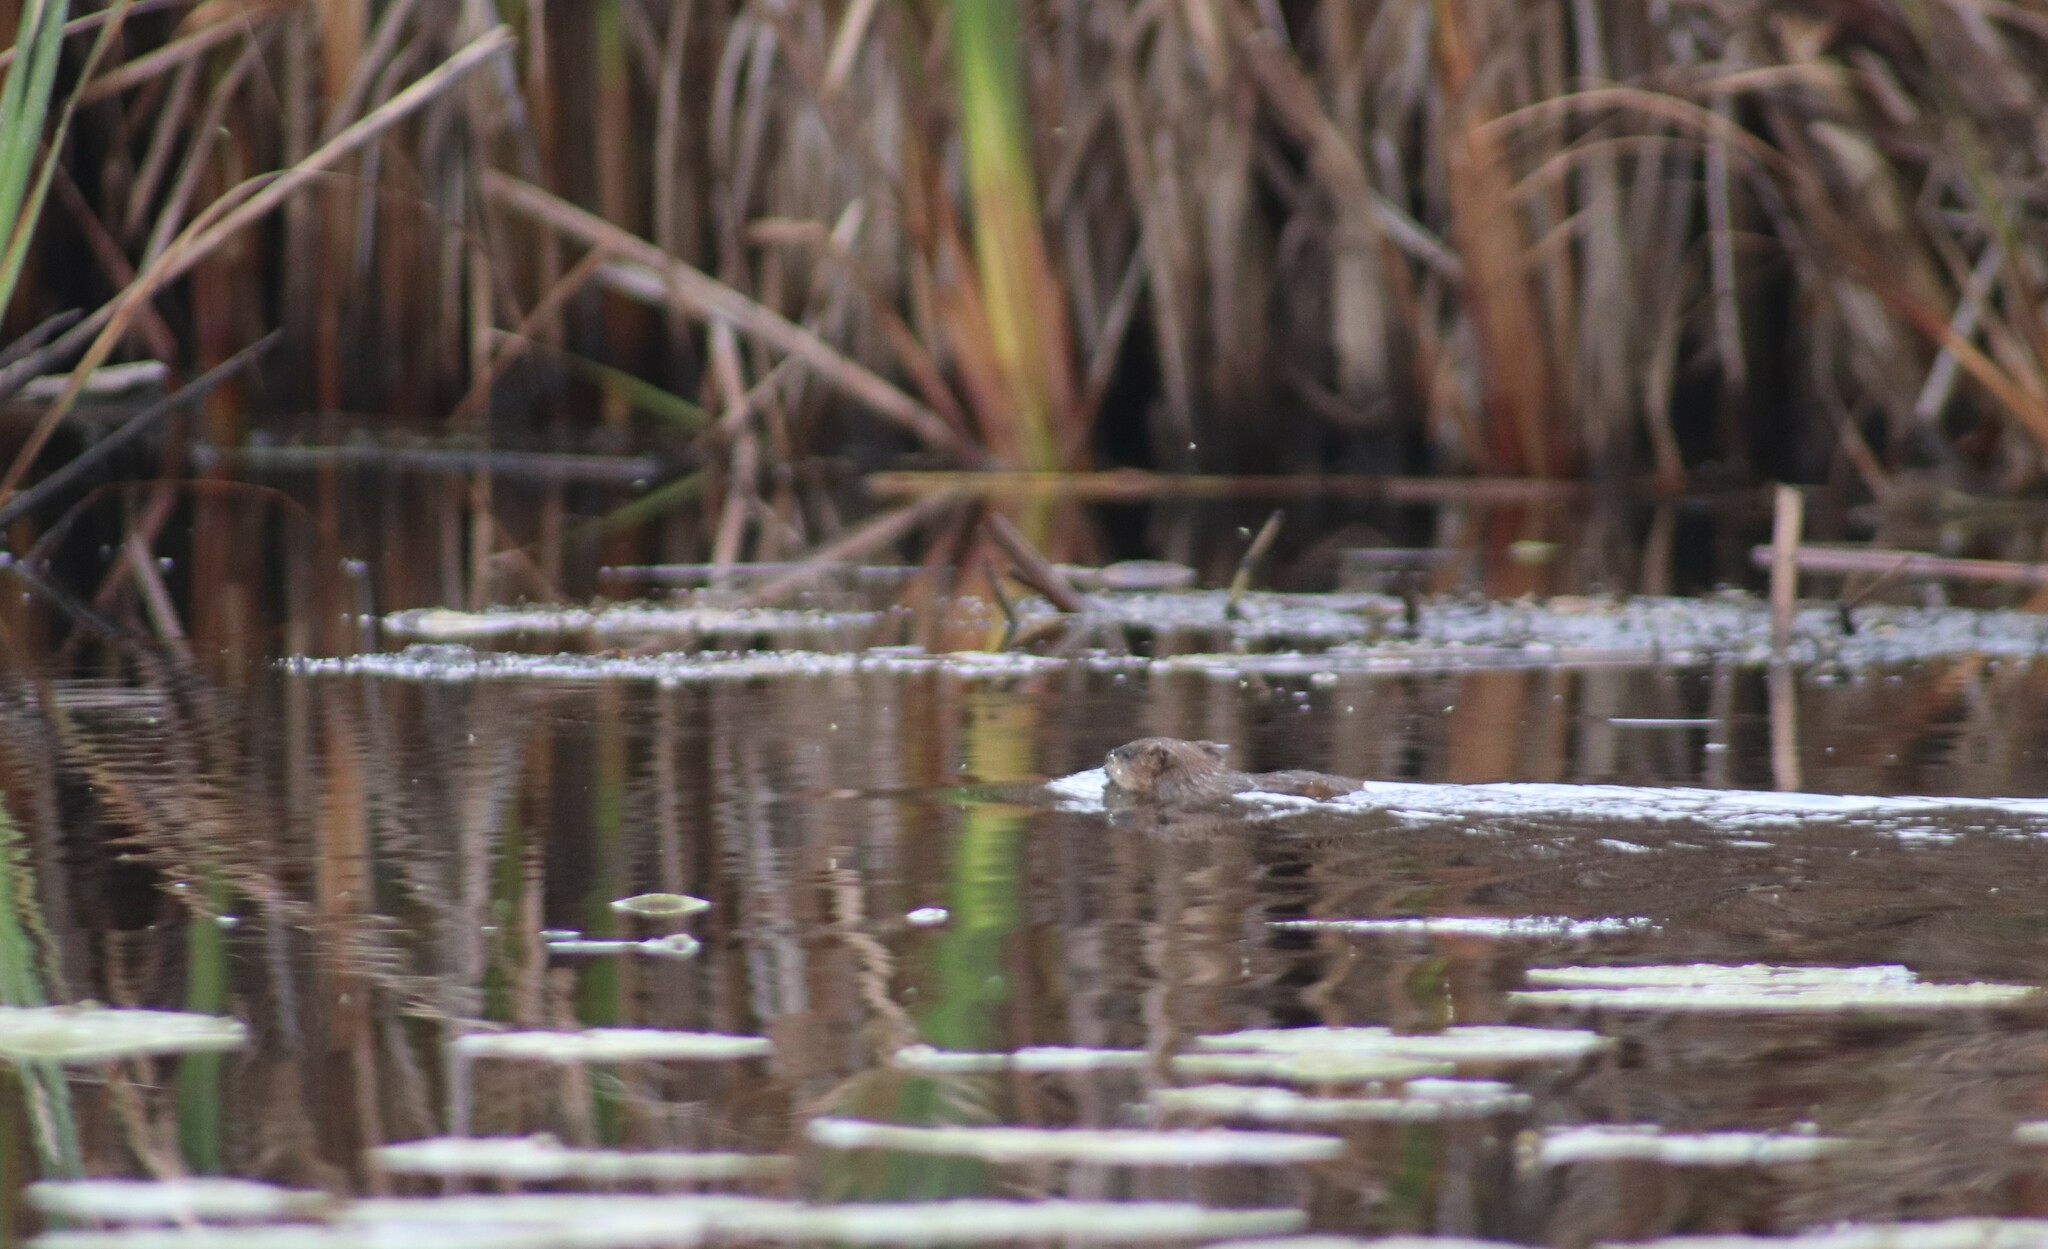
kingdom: Animalia
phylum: Chordata
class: Mammalia
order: Rodentia
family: Cricetidae
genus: Ondatra
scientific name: Ondatra zibethicus
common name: Muskrat
